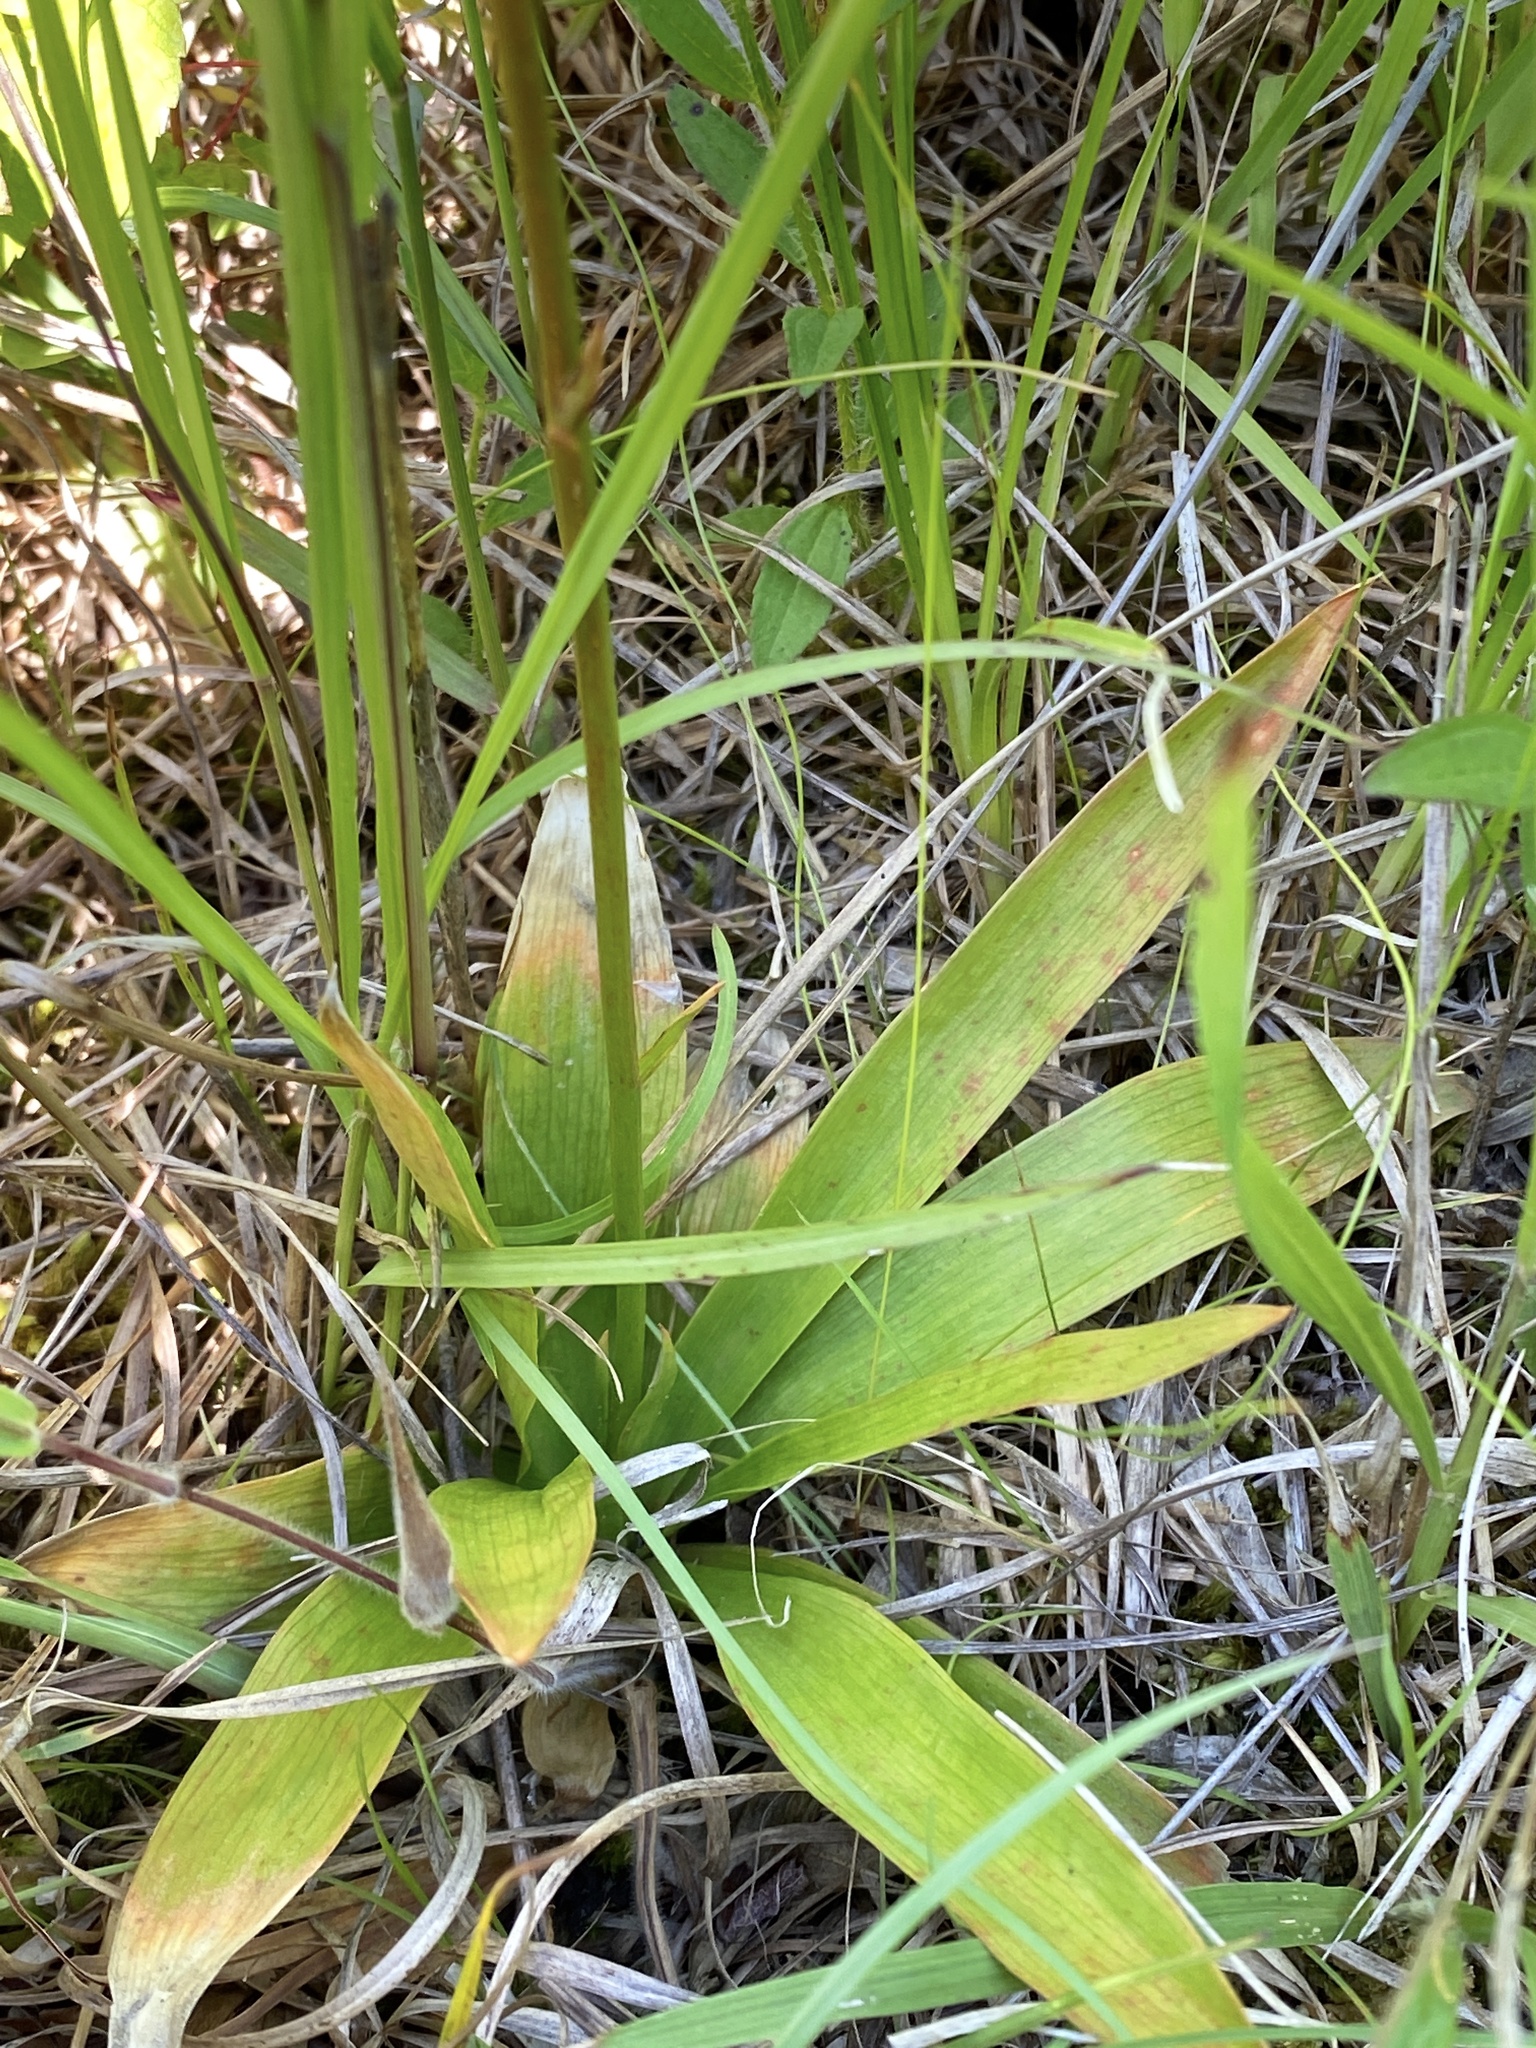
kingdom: Plantae
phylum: Tracheophyta
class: Liliopsida
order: Dioscoreales
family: Nartheciaceae
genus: Aletris
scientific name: Aletris farinosa
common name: Colicroot
